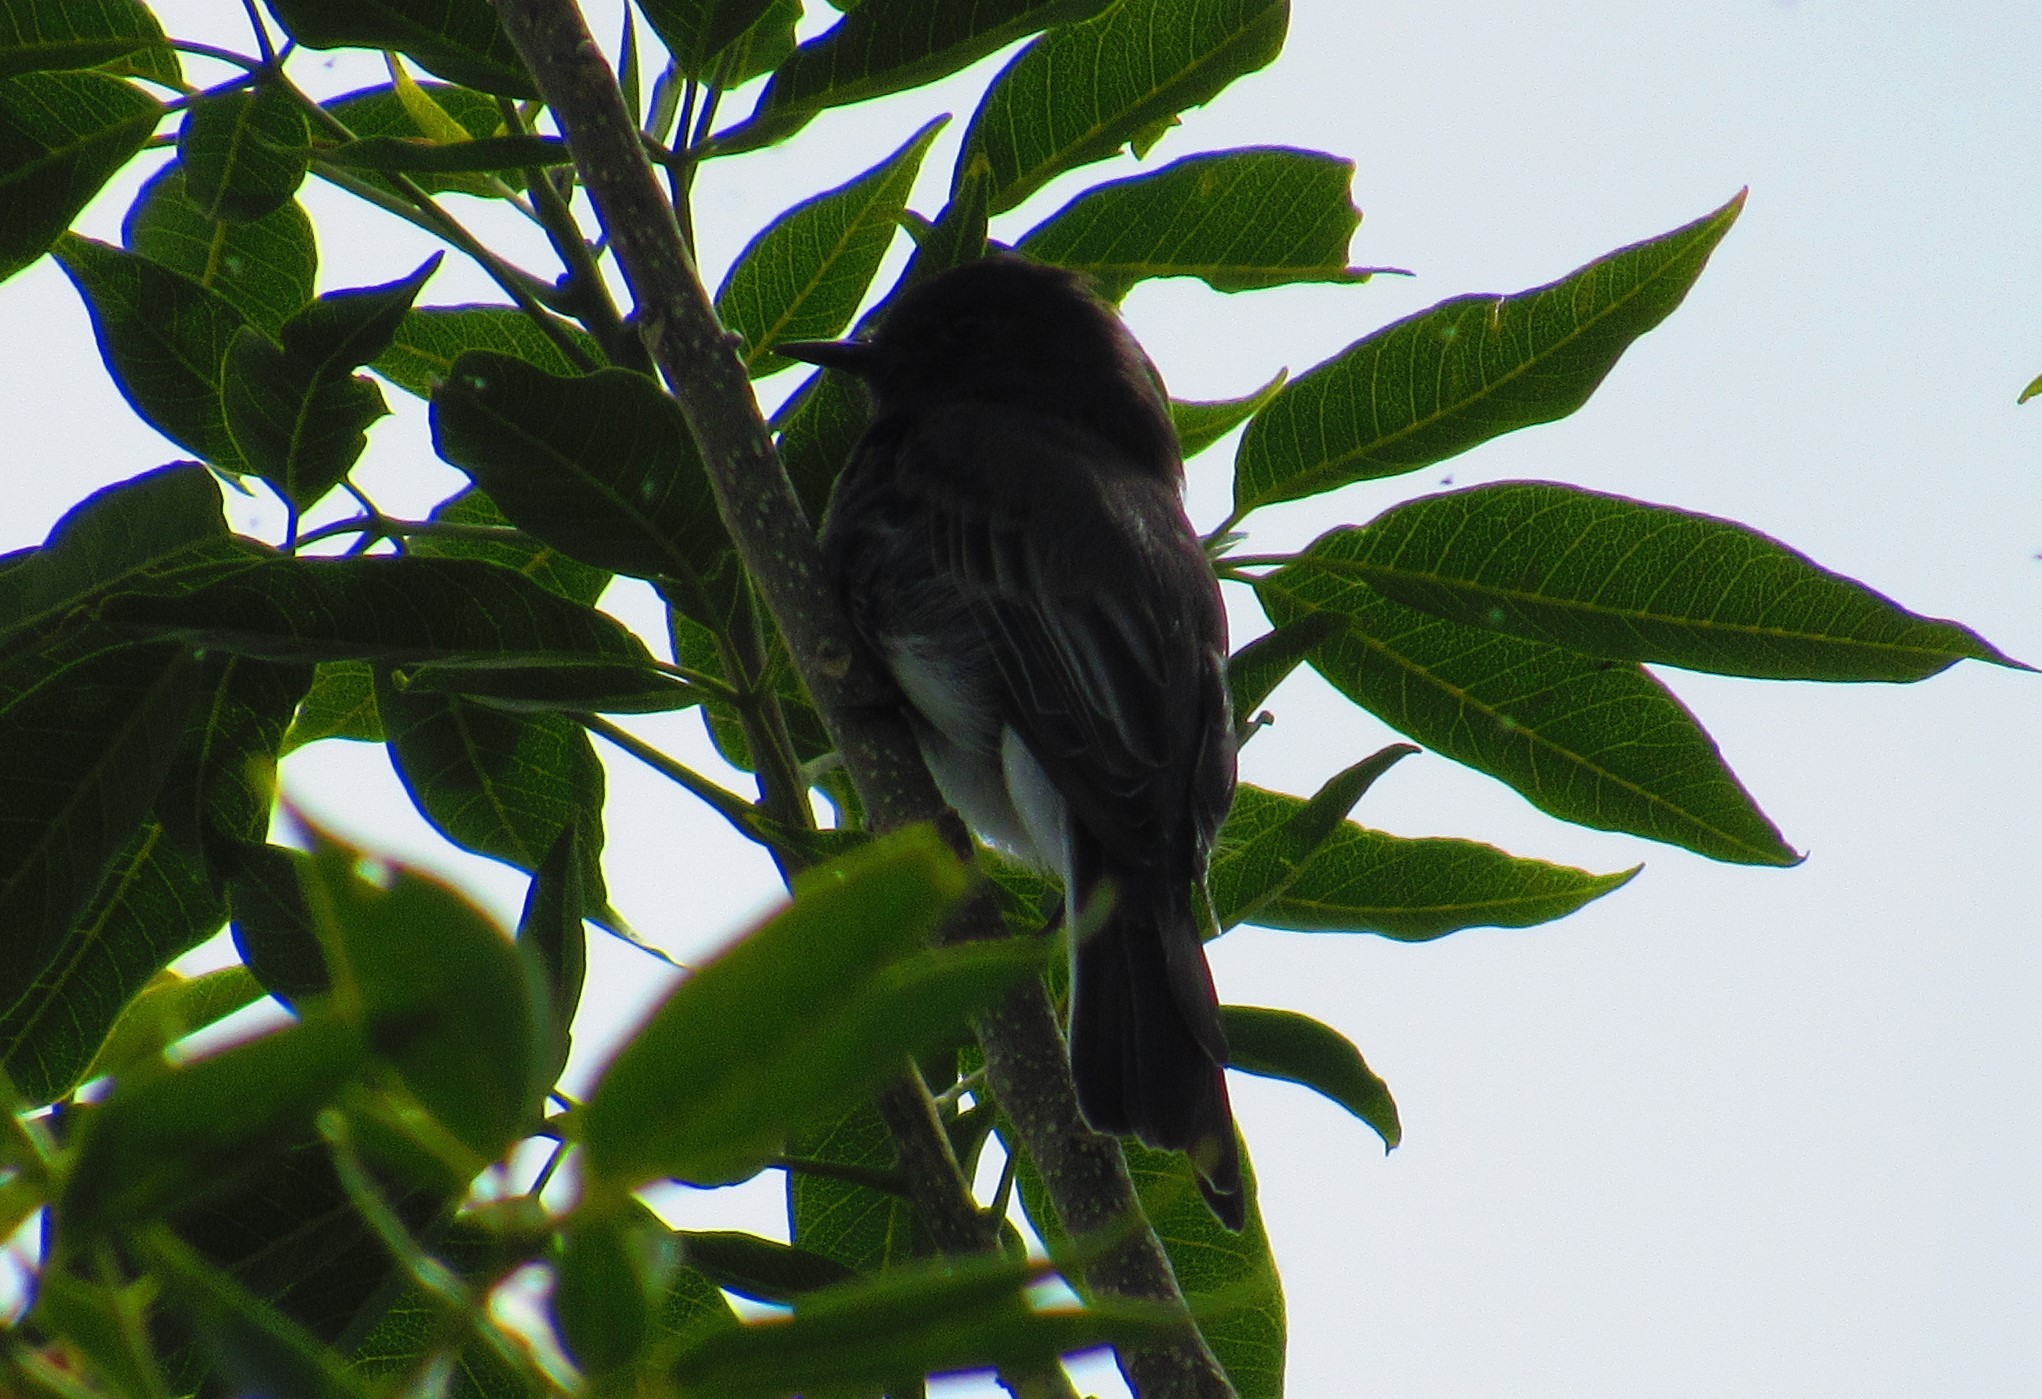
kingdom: Animalia
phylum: Chordata
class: Aves
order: Passeriformes
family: Tyrannidae
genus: Sayornis
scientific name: Sayornis nigricans
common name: Black phoebe
